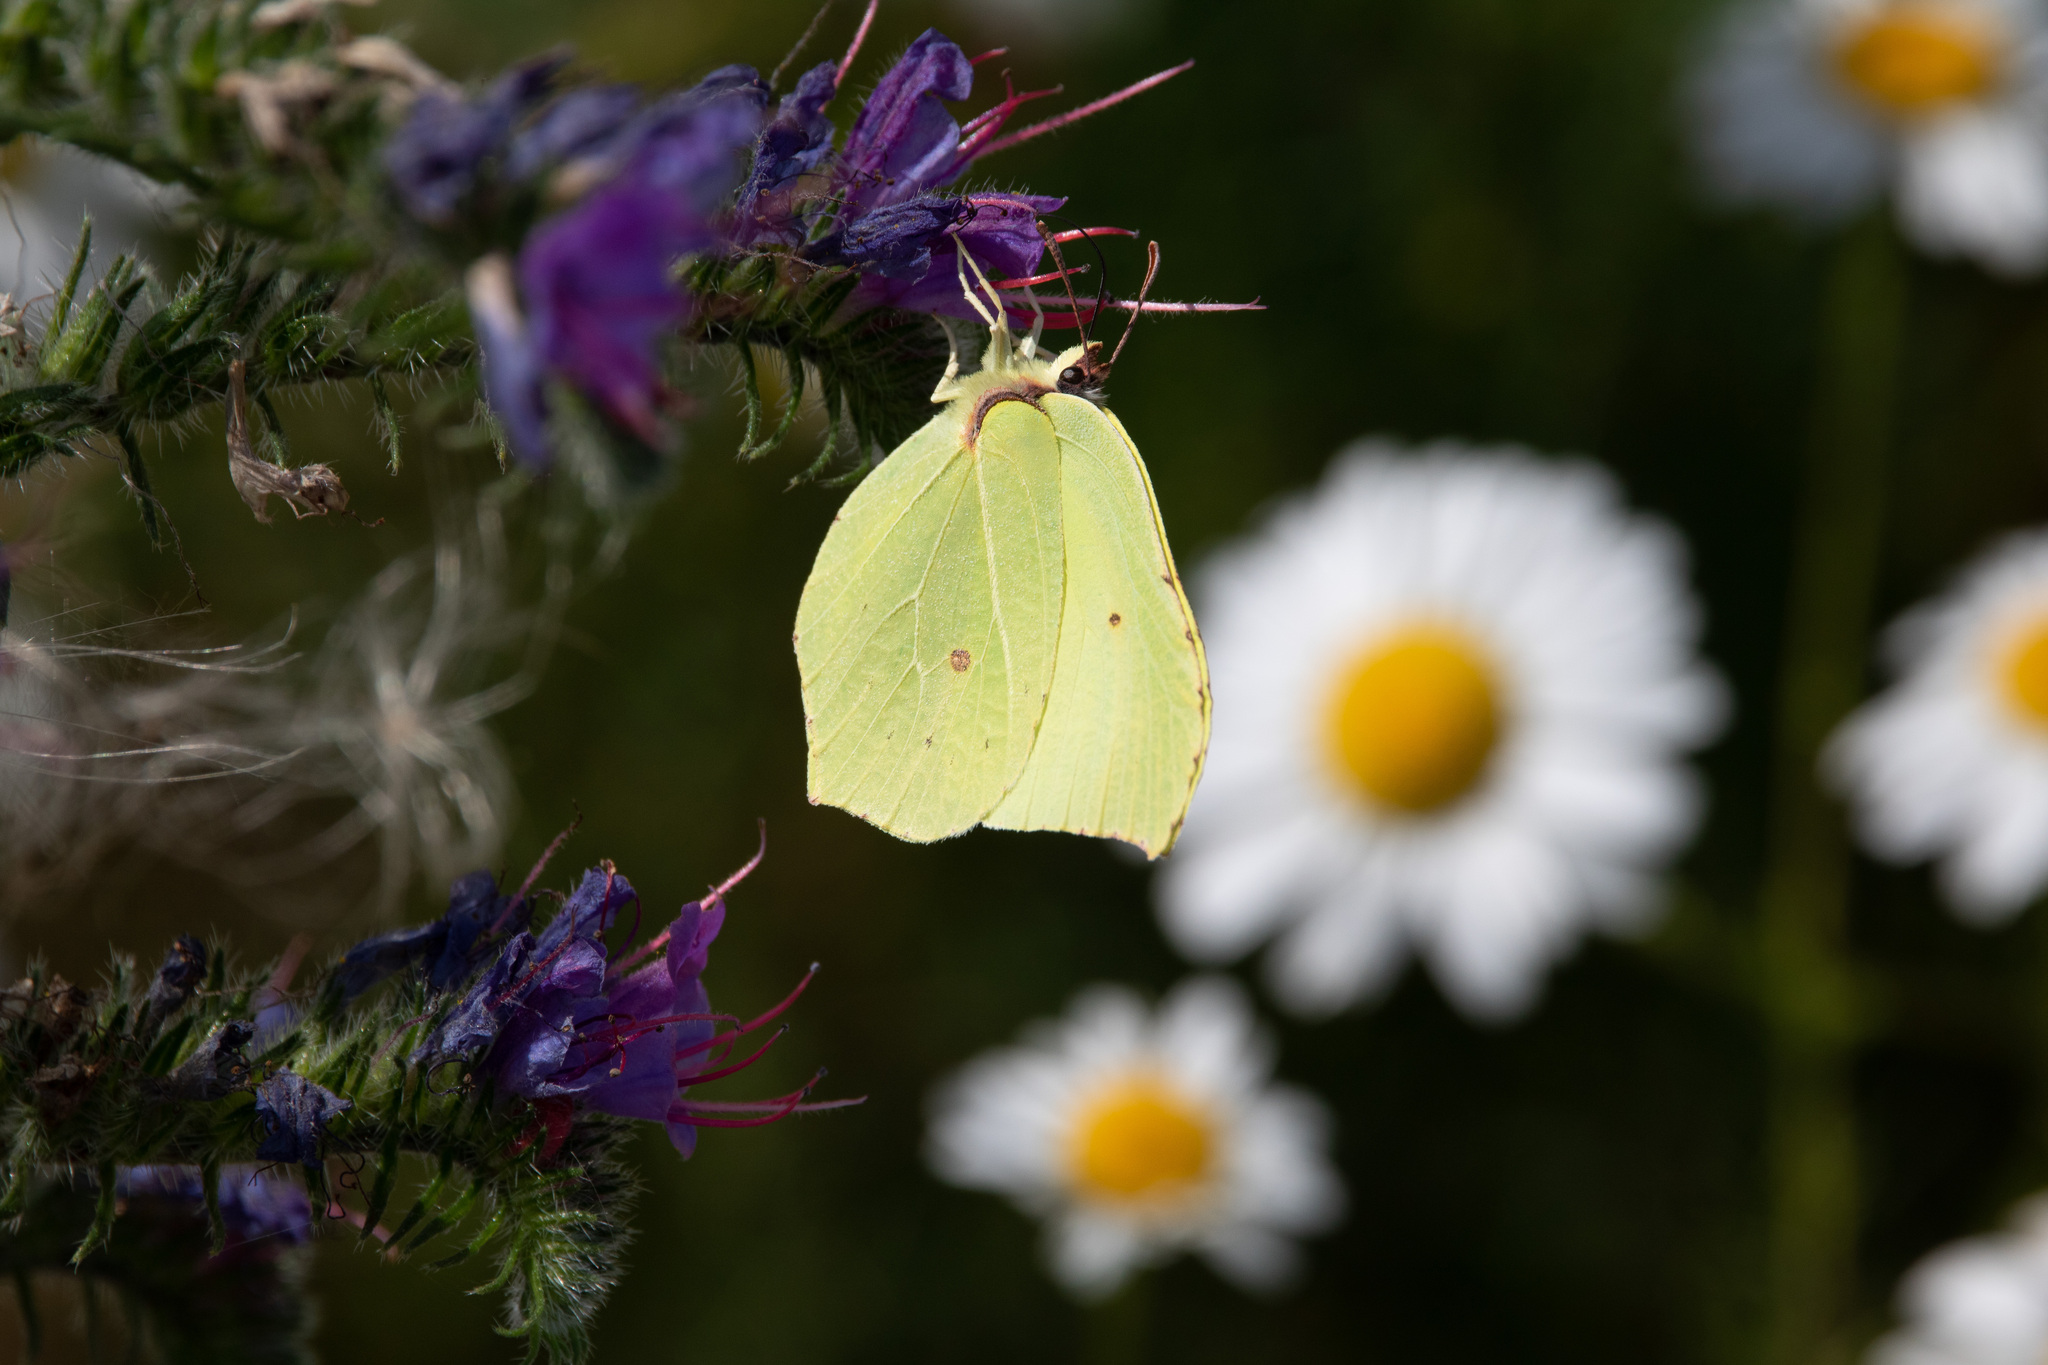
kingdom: Animalia
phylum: Arthropoda
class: Insecta
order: Lepidoptera
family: Pieridae
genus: Gonepteryx
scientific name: Gonepteryx rhamni
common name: Brimstone
